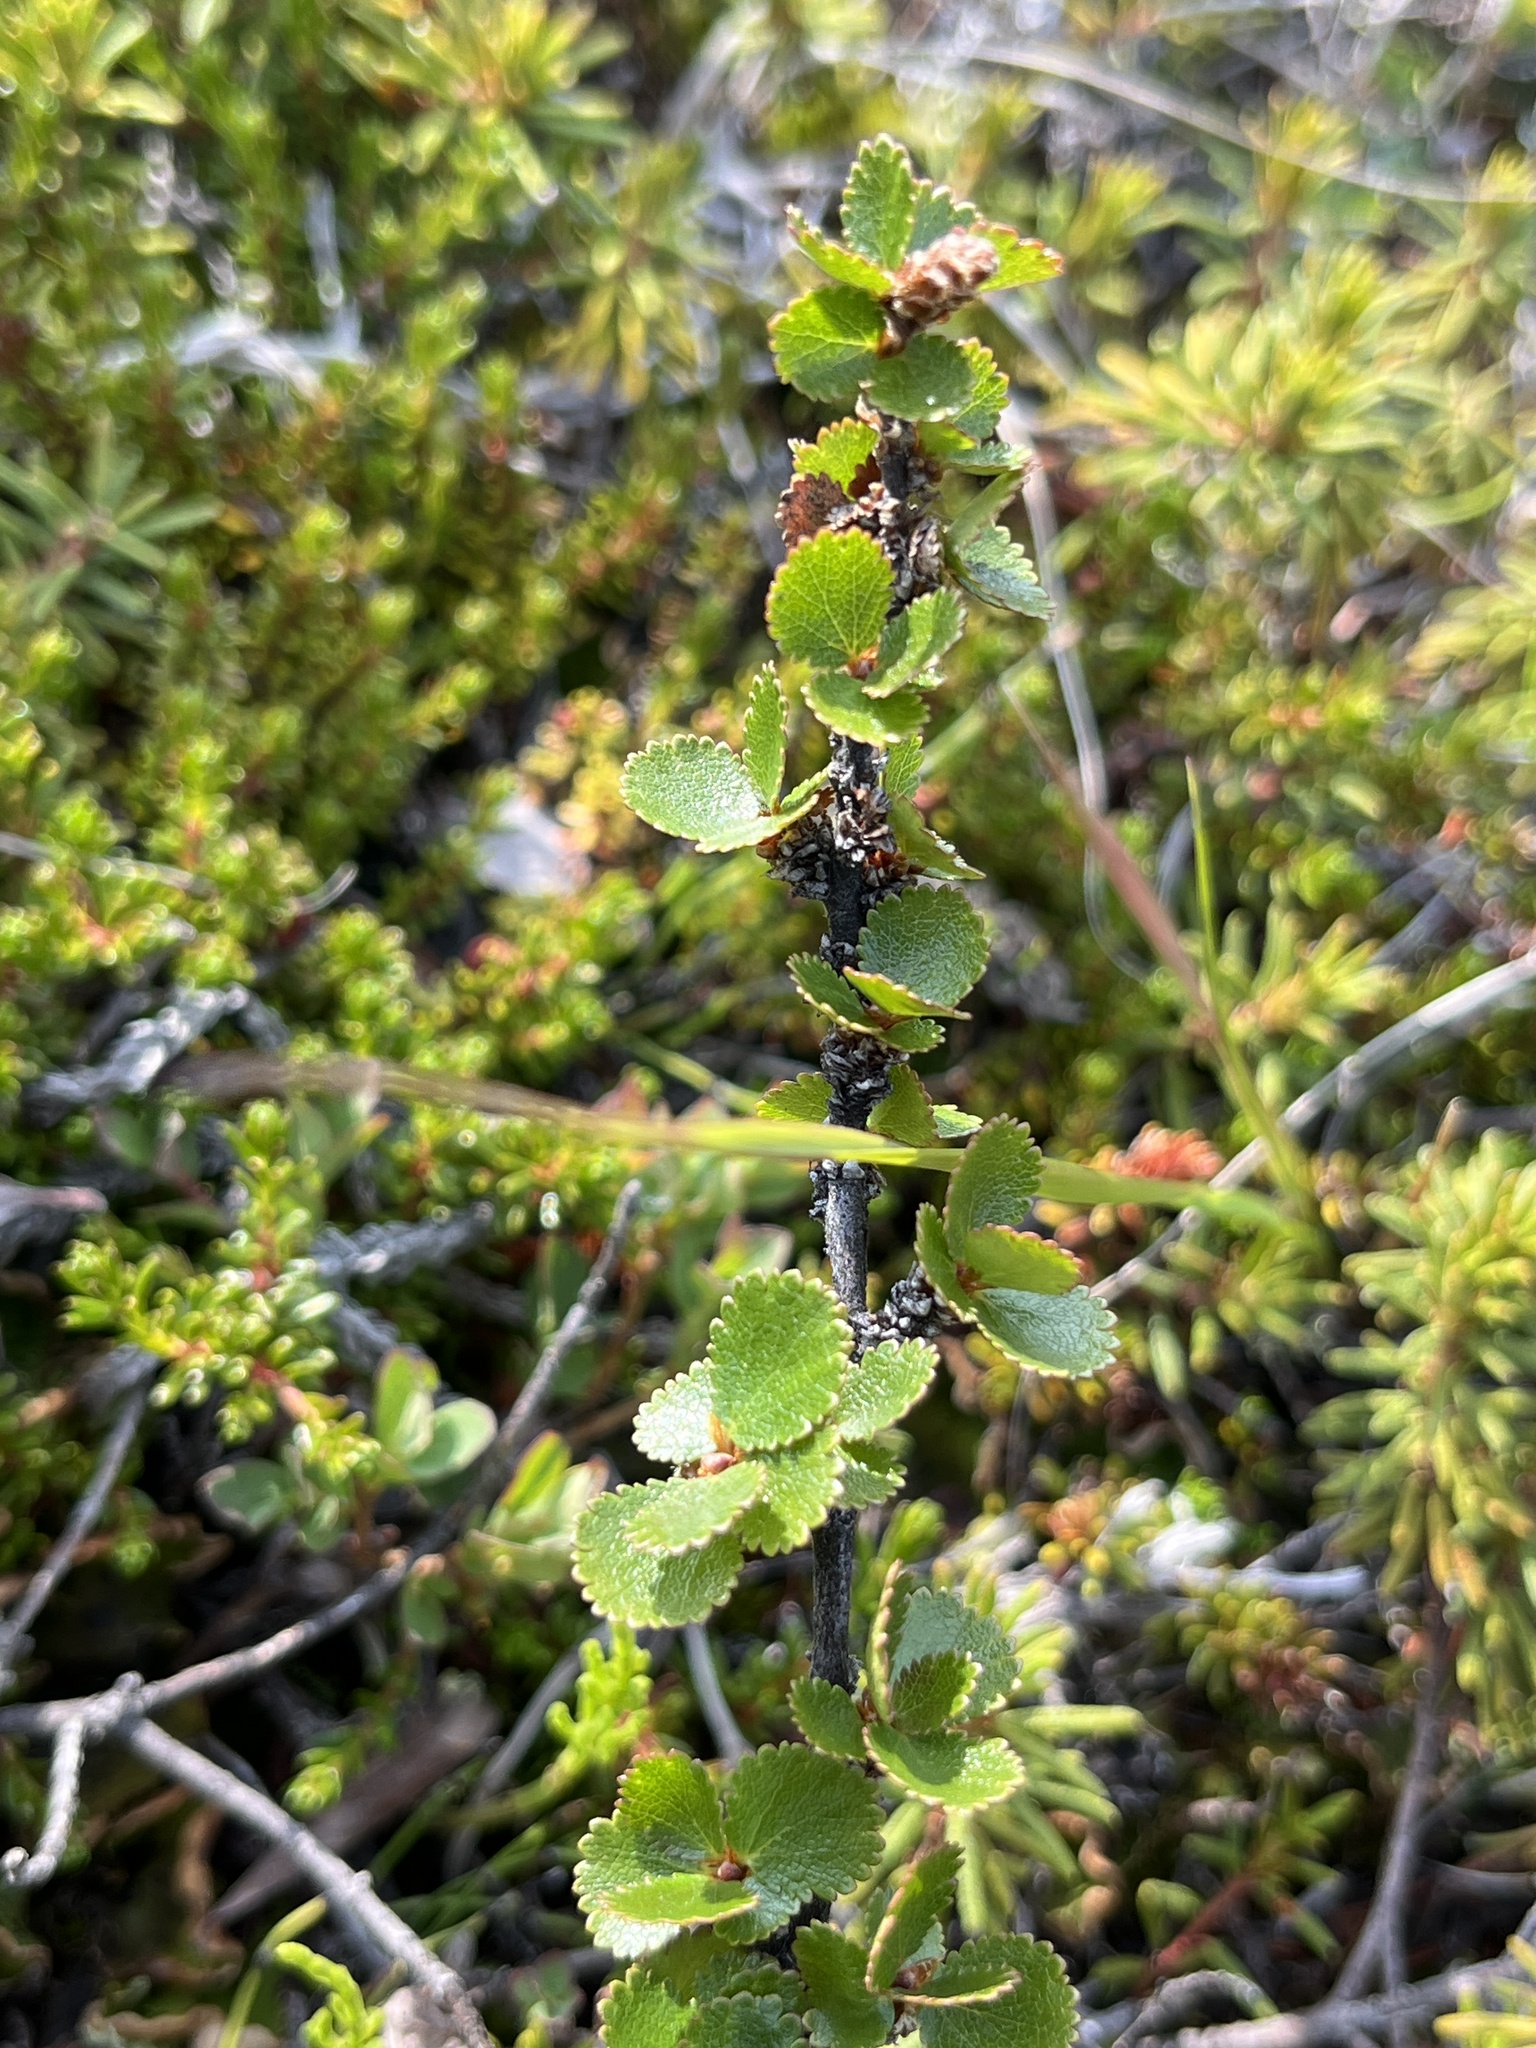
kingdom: Plantae
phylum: Tracheophyta
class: Magnoliopsida
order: Fagales
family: Betulaceae
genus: Betula
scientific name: Betula nana
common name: Arctic dwarf birch
